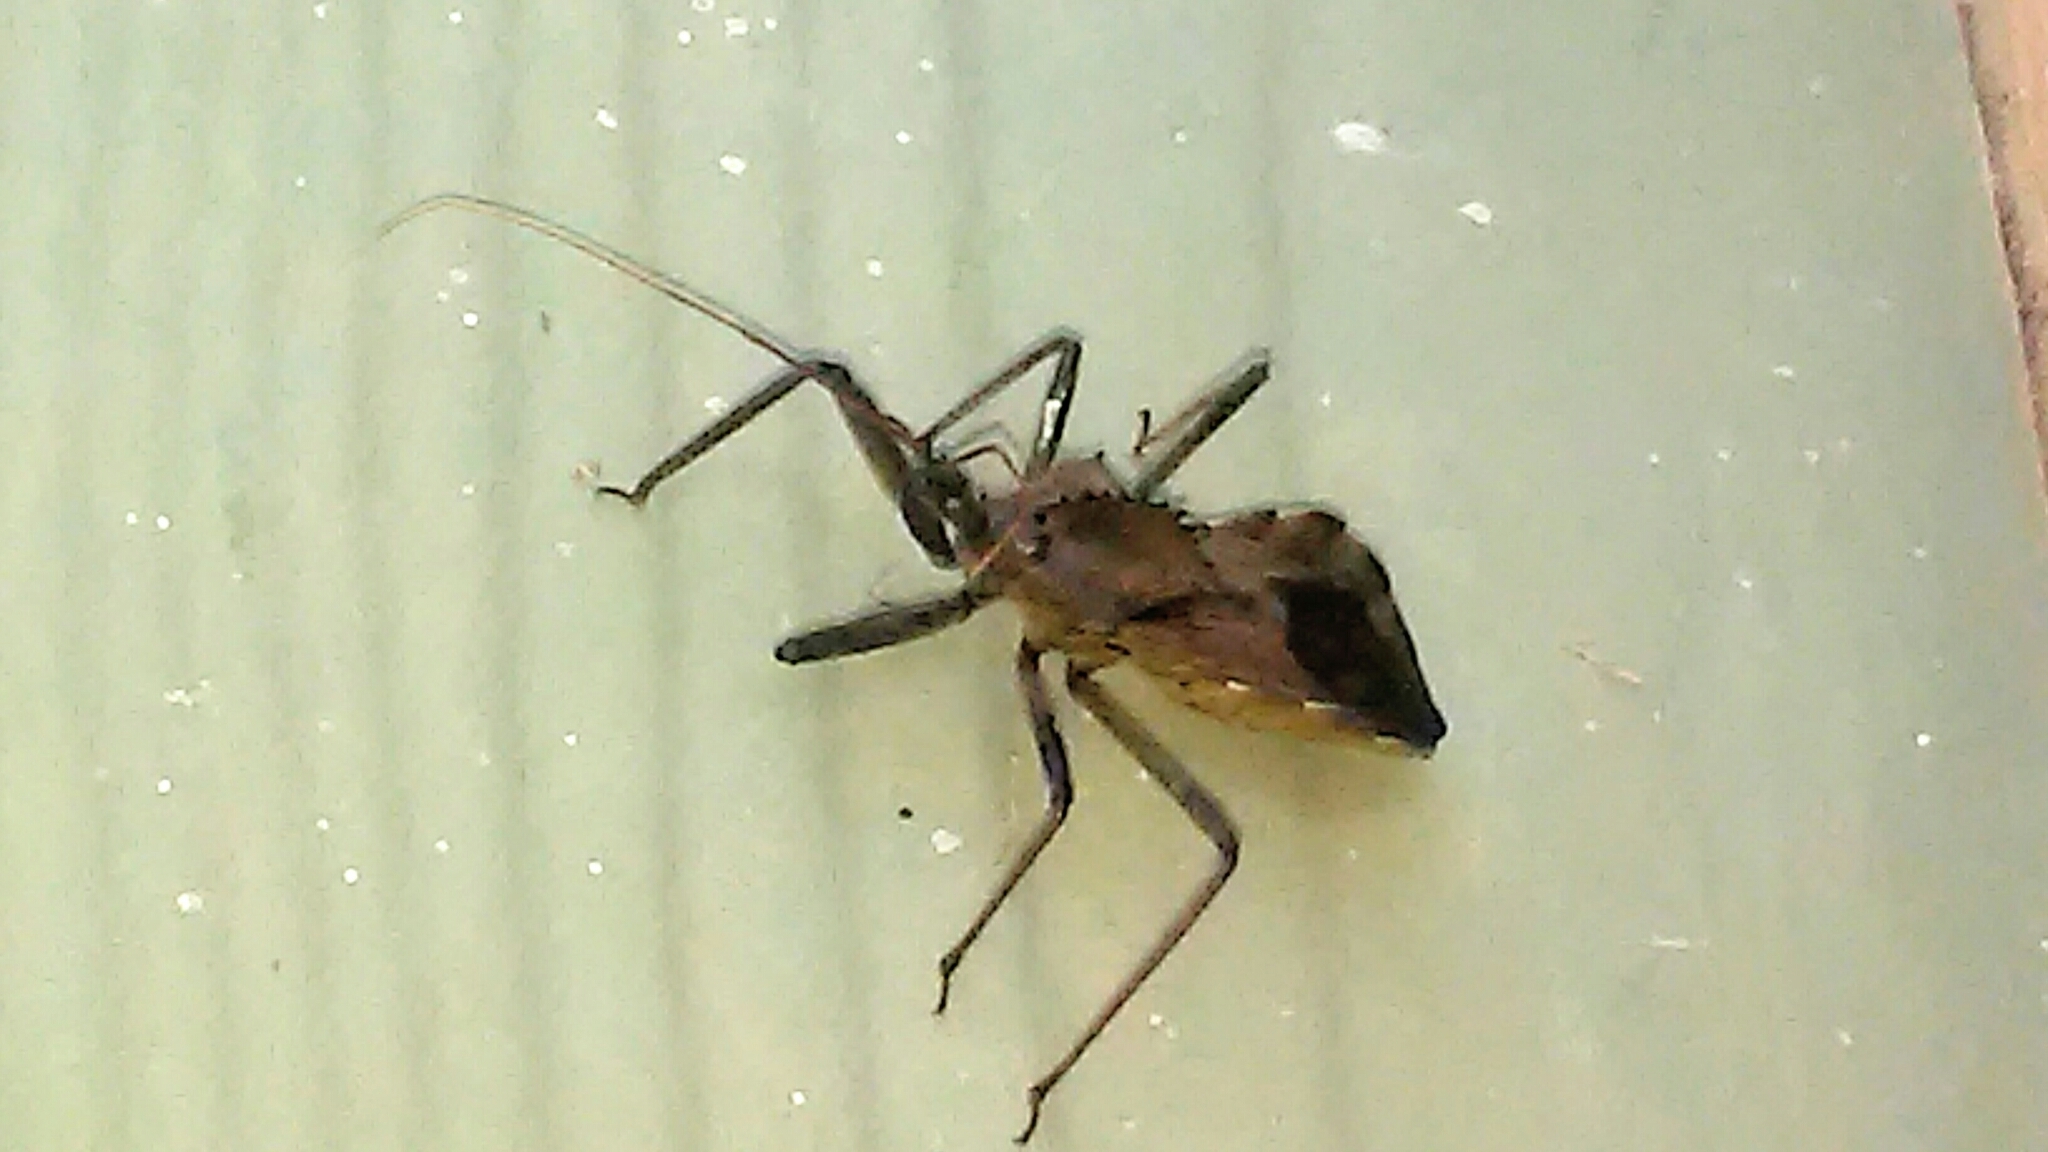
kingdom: Animalia
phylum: Arthropoda
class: Insecta
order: Hemiptera
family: Reduviidae
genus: Arilus
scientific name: Arilus cristatus
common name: North american wheel bug
